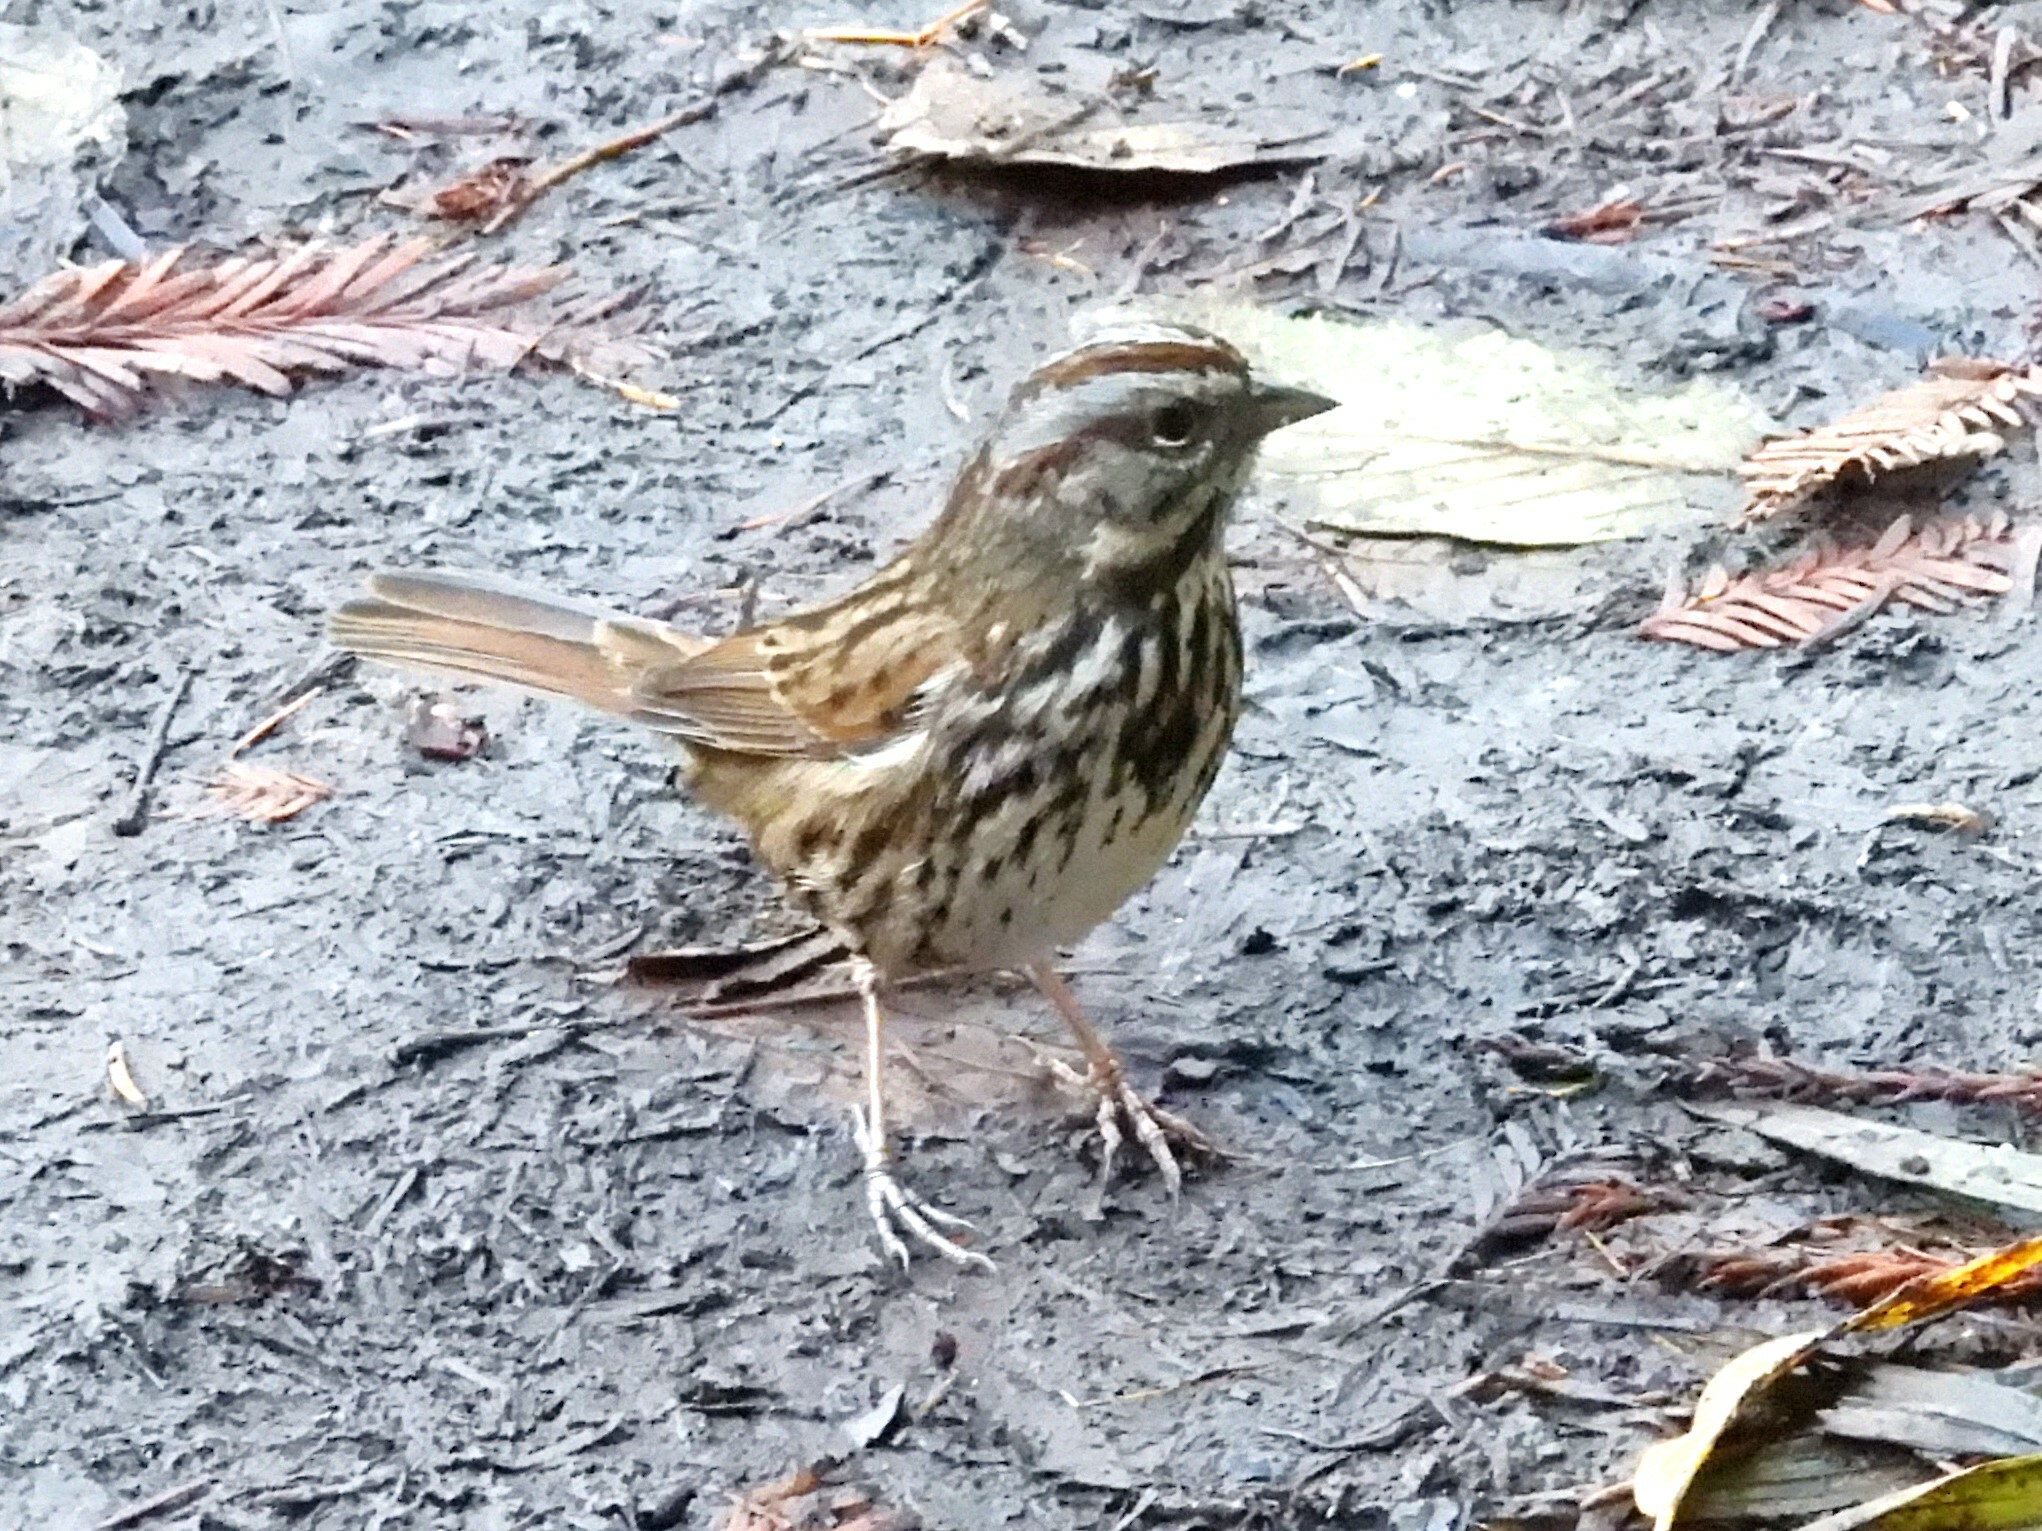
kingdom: Animalia
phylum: Chordata
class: Aves
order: Passeriformes
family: Passerellidae
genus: Melospiza
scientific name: Melospiza melodia
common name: Song sparrow
